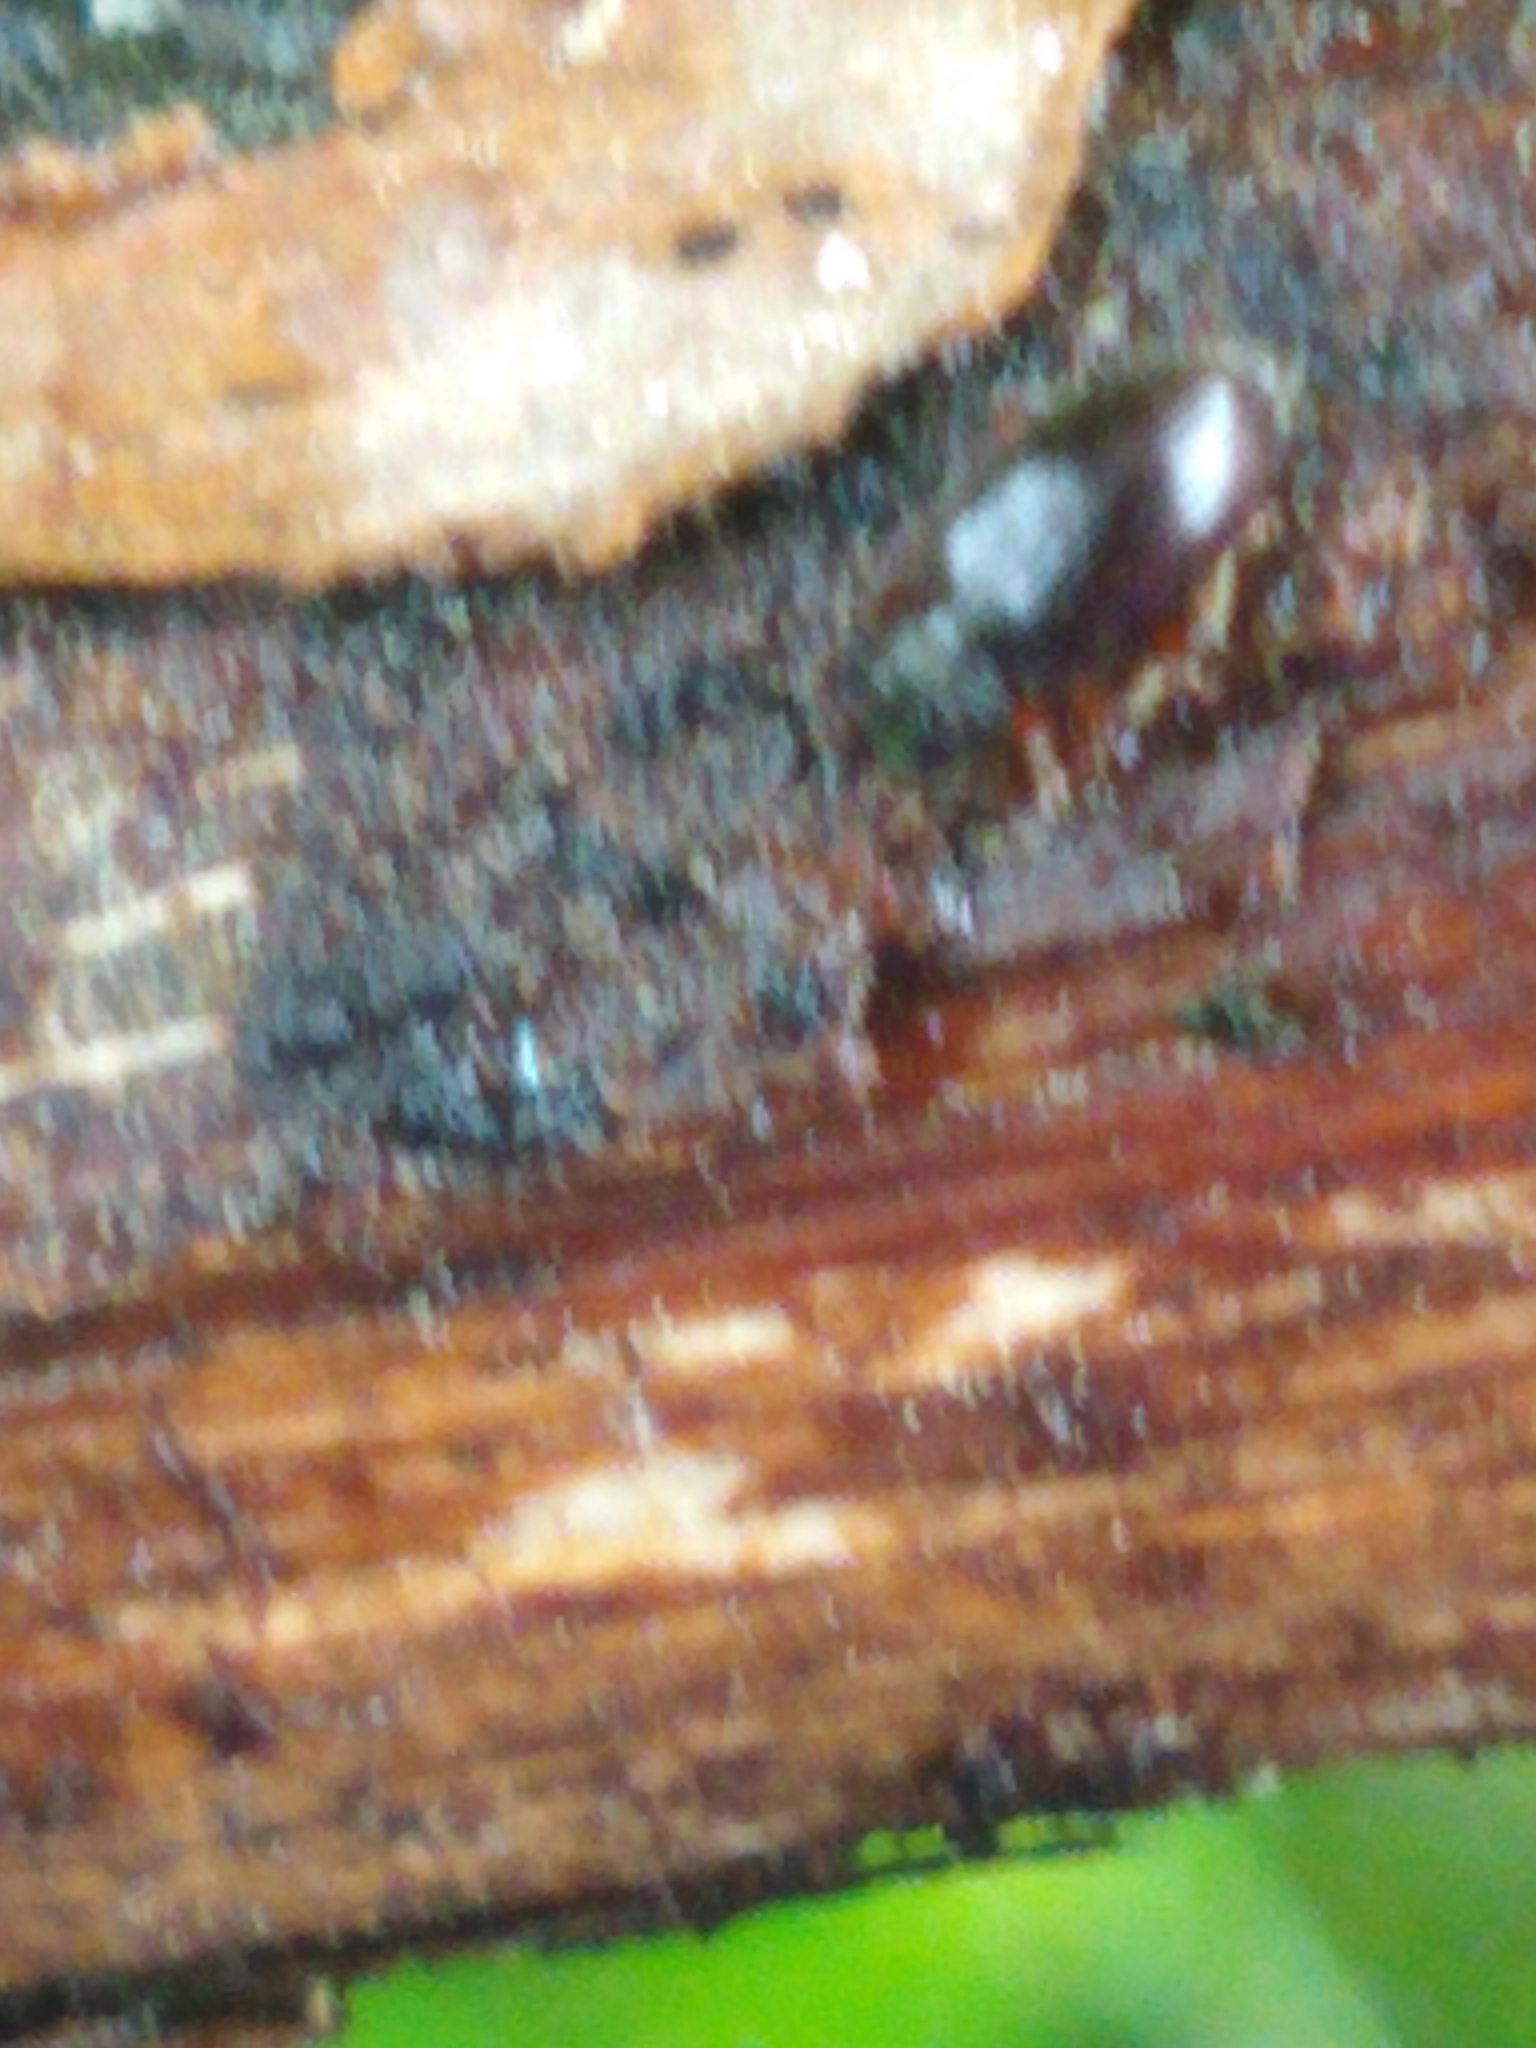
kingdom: Animalia
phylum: Arthropoda
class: Insecta
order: Coleoptera
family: Curculionidae
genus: Exomias
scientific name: Exomias pellucidus
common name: Hairy spider weevil
